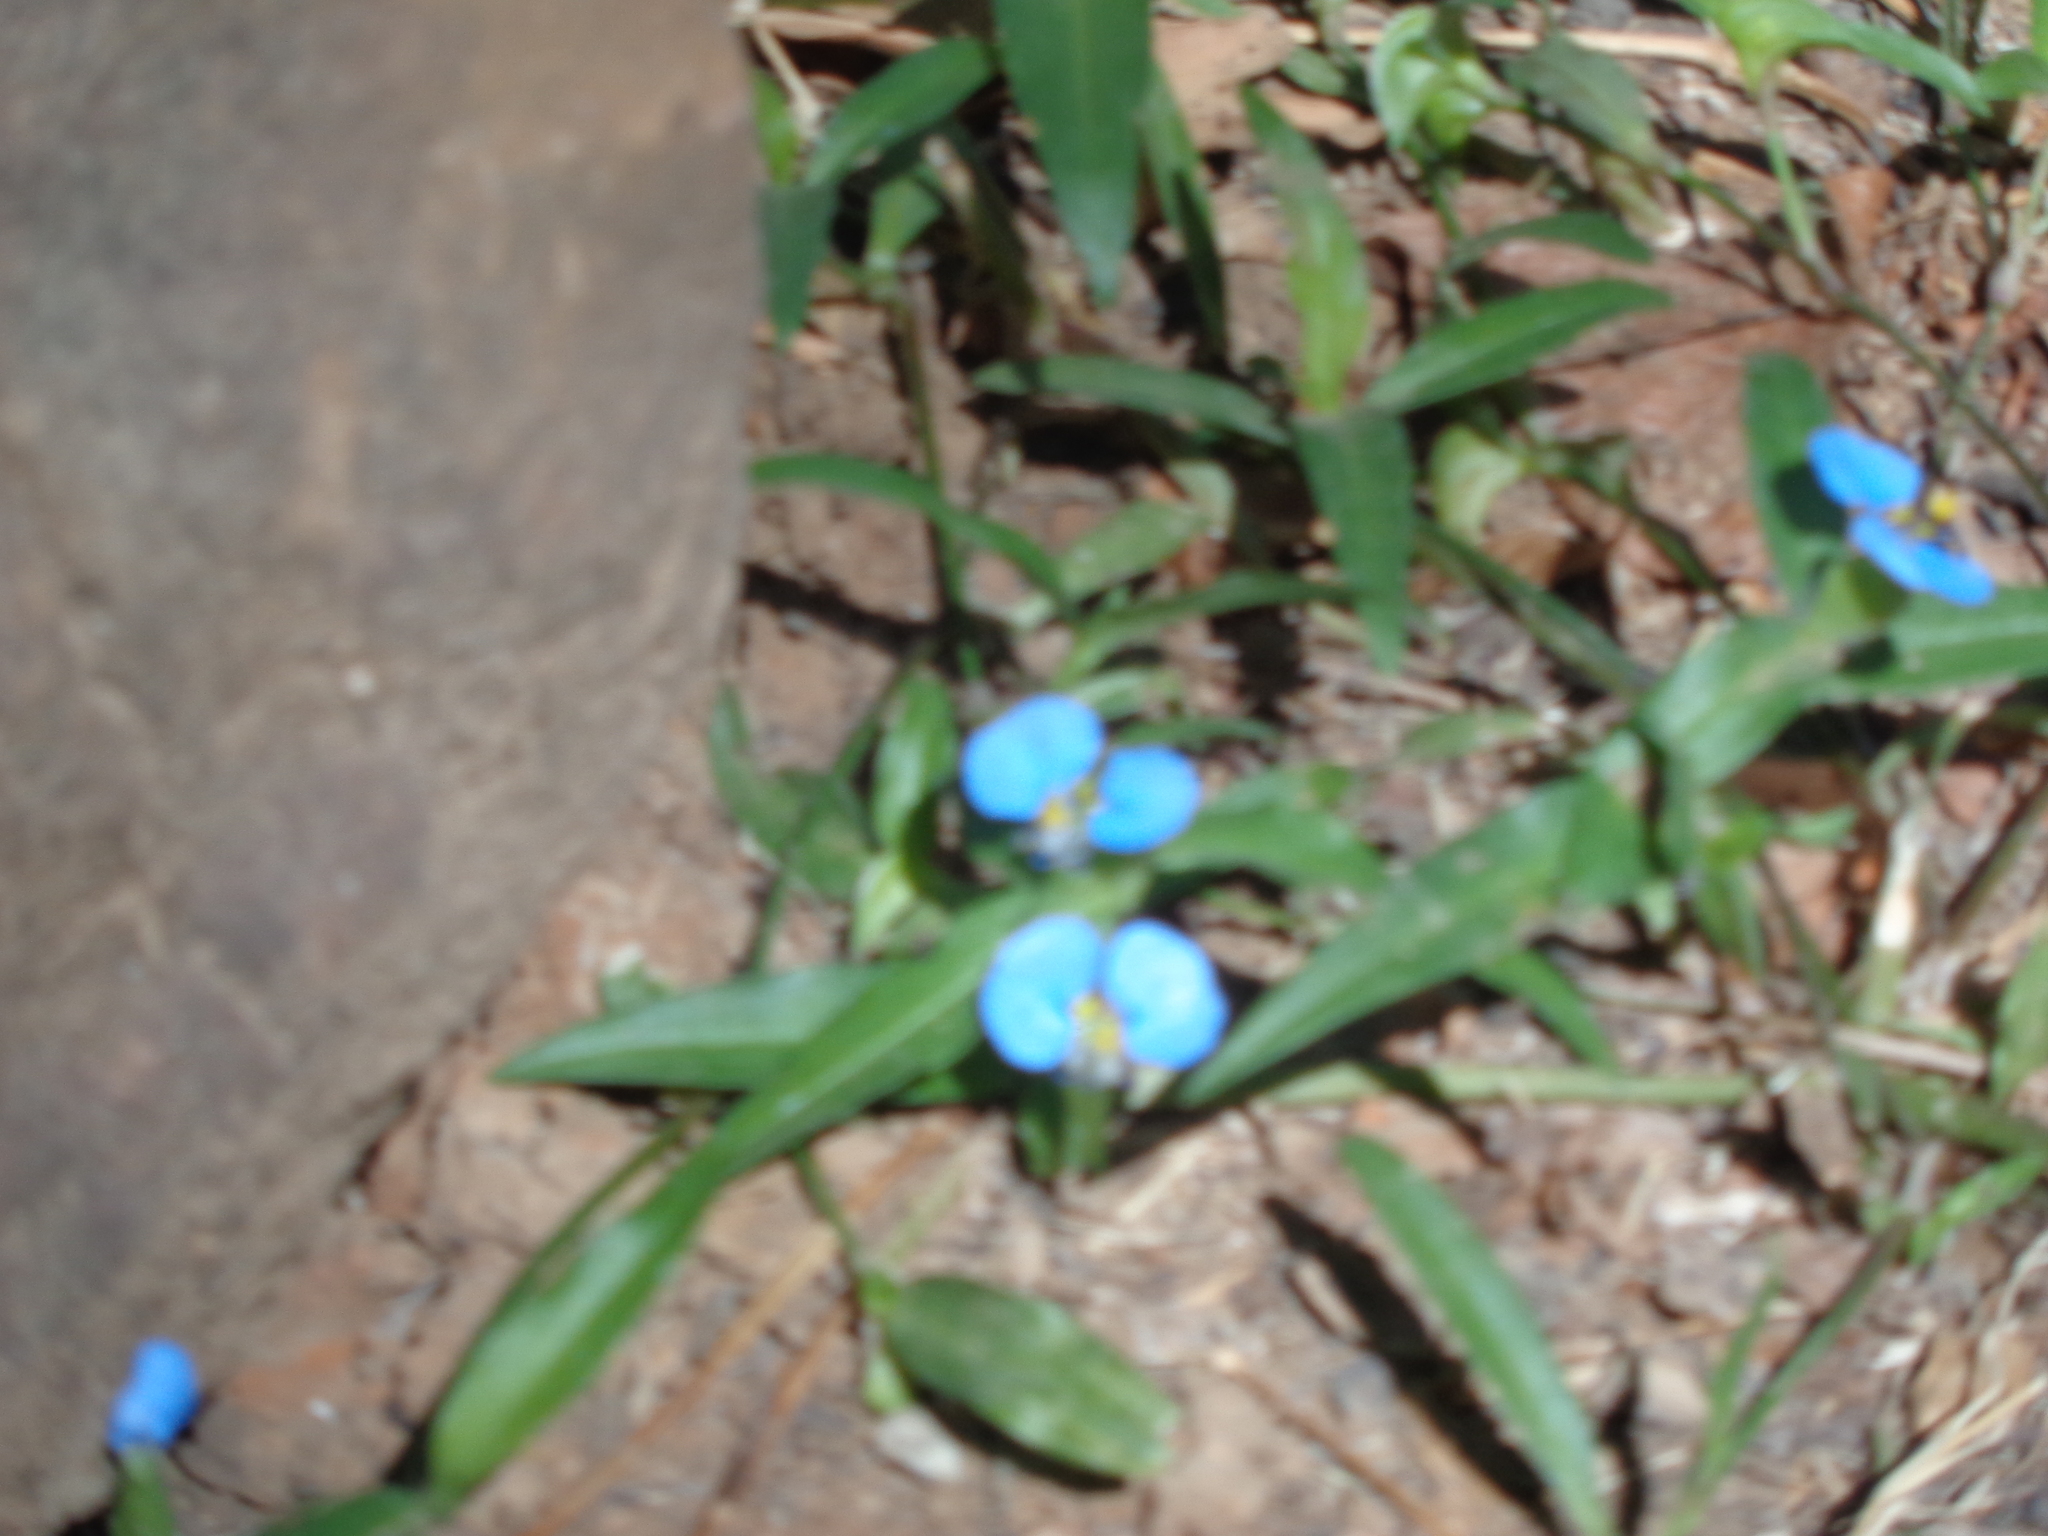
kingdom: Plantae
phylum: Tracheophyta
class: Liliopsida
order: Commelinales
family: Commelinaceae
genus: Commelina
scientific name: Commelina erecta
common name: Blousel blommetjie
